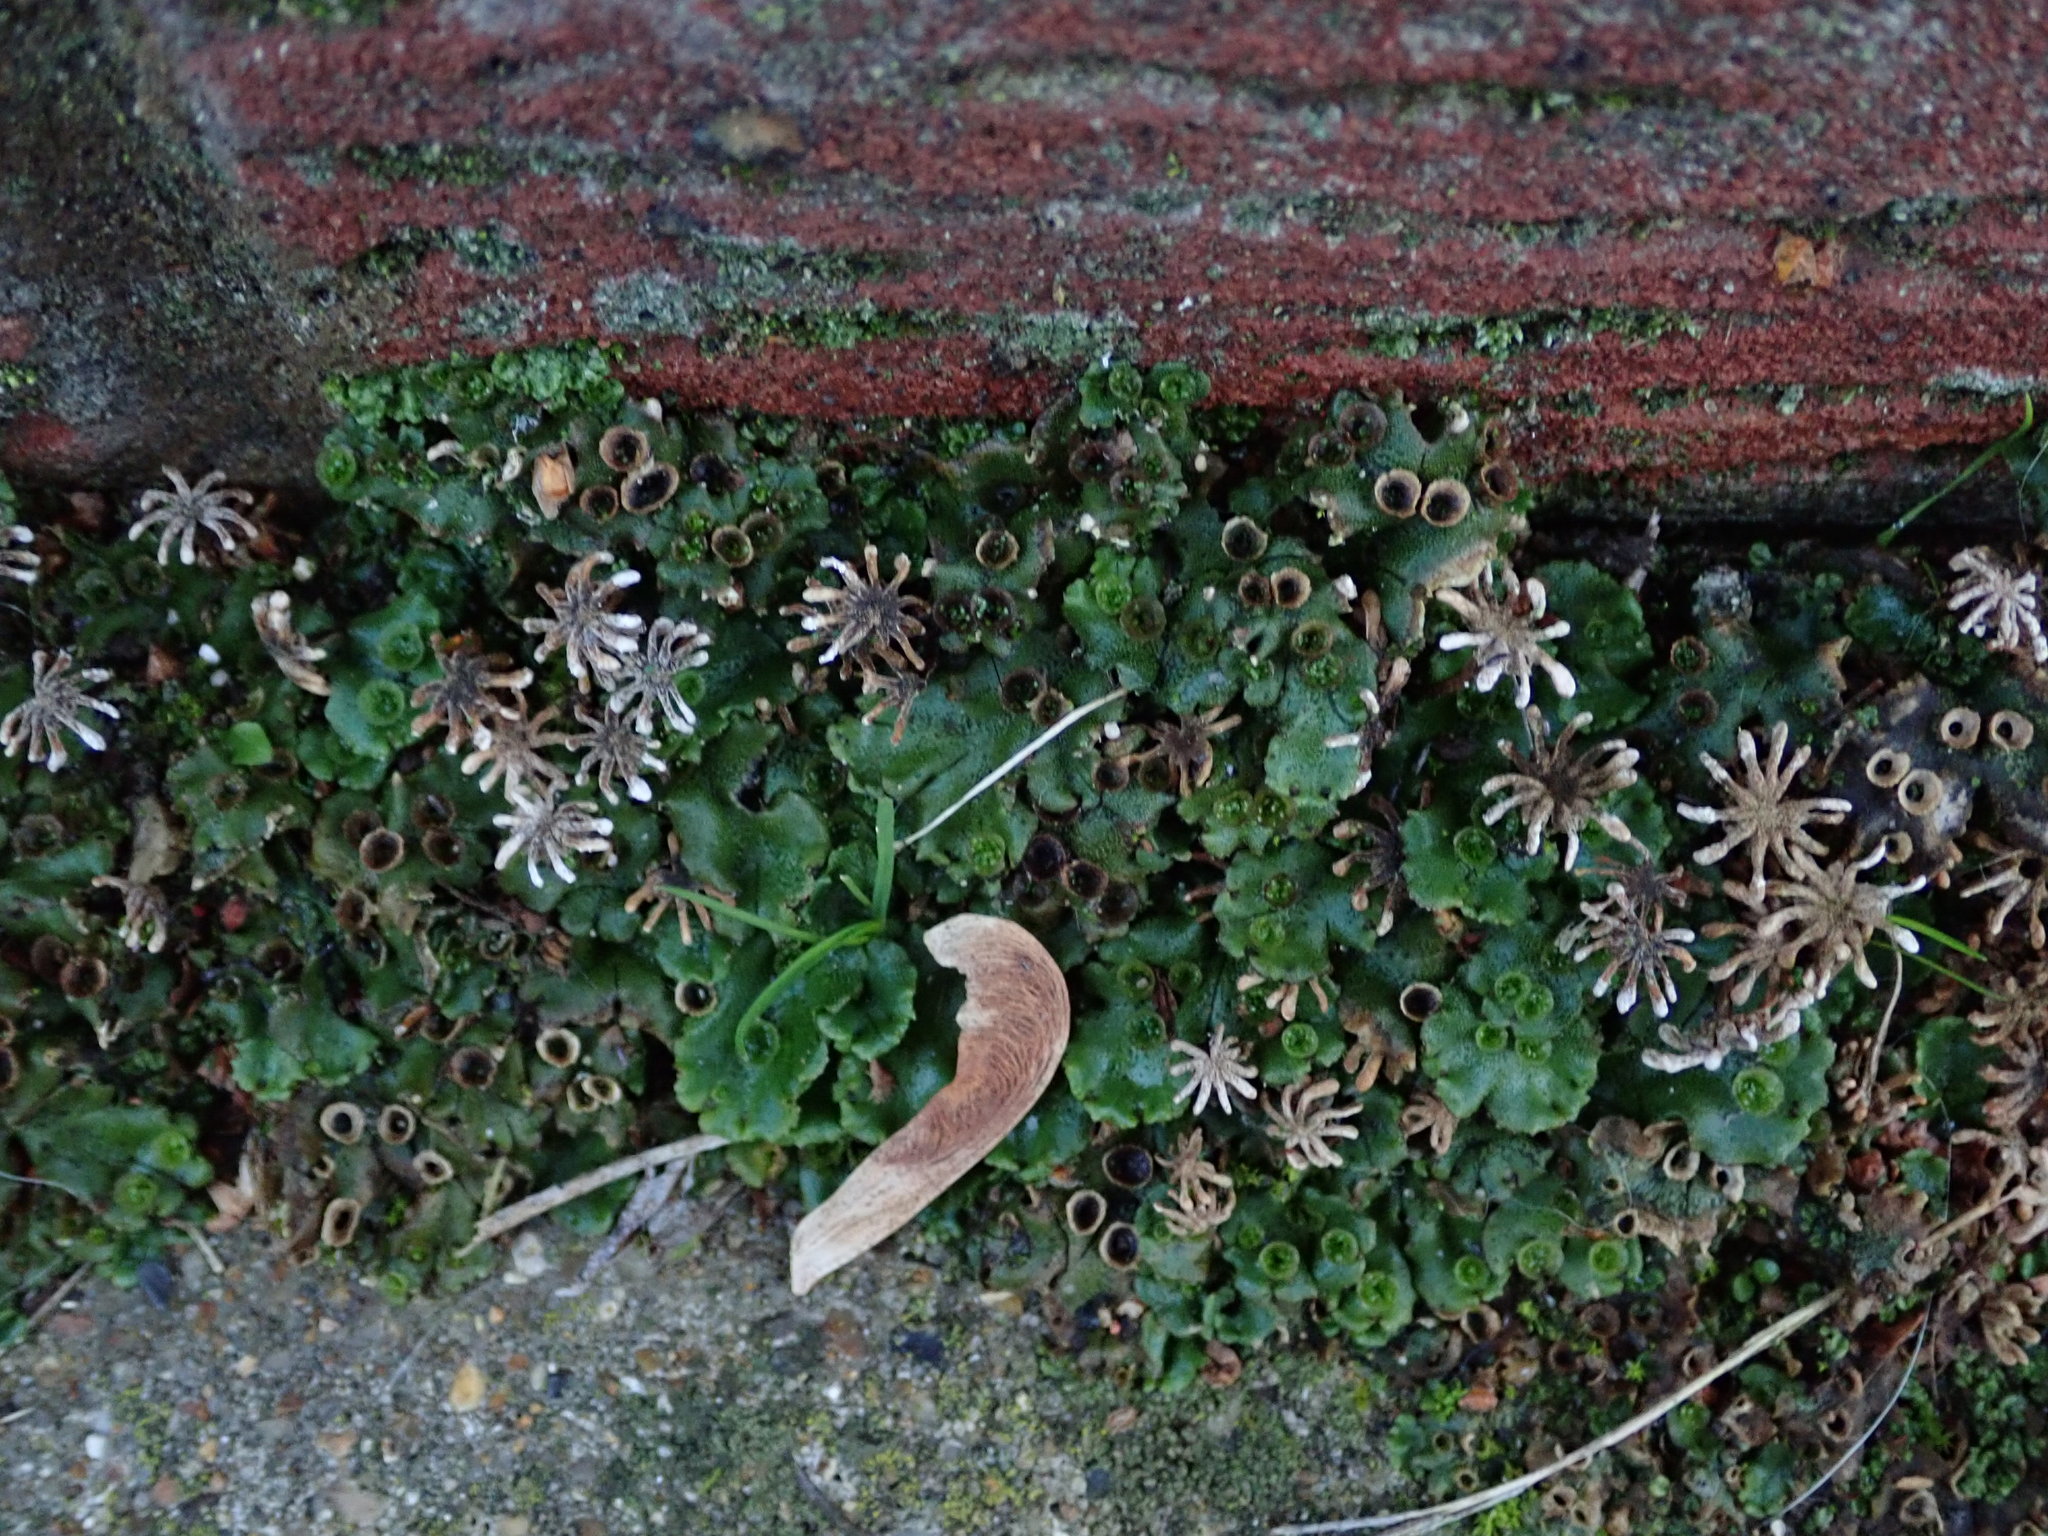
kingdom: Plantae
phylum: Marchantiophyta
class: Marchantiopsida
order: Marchantiales
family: Marchantiaceae
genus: Marchantia
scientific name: Marchantia polymorpha
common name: Common liverwort
